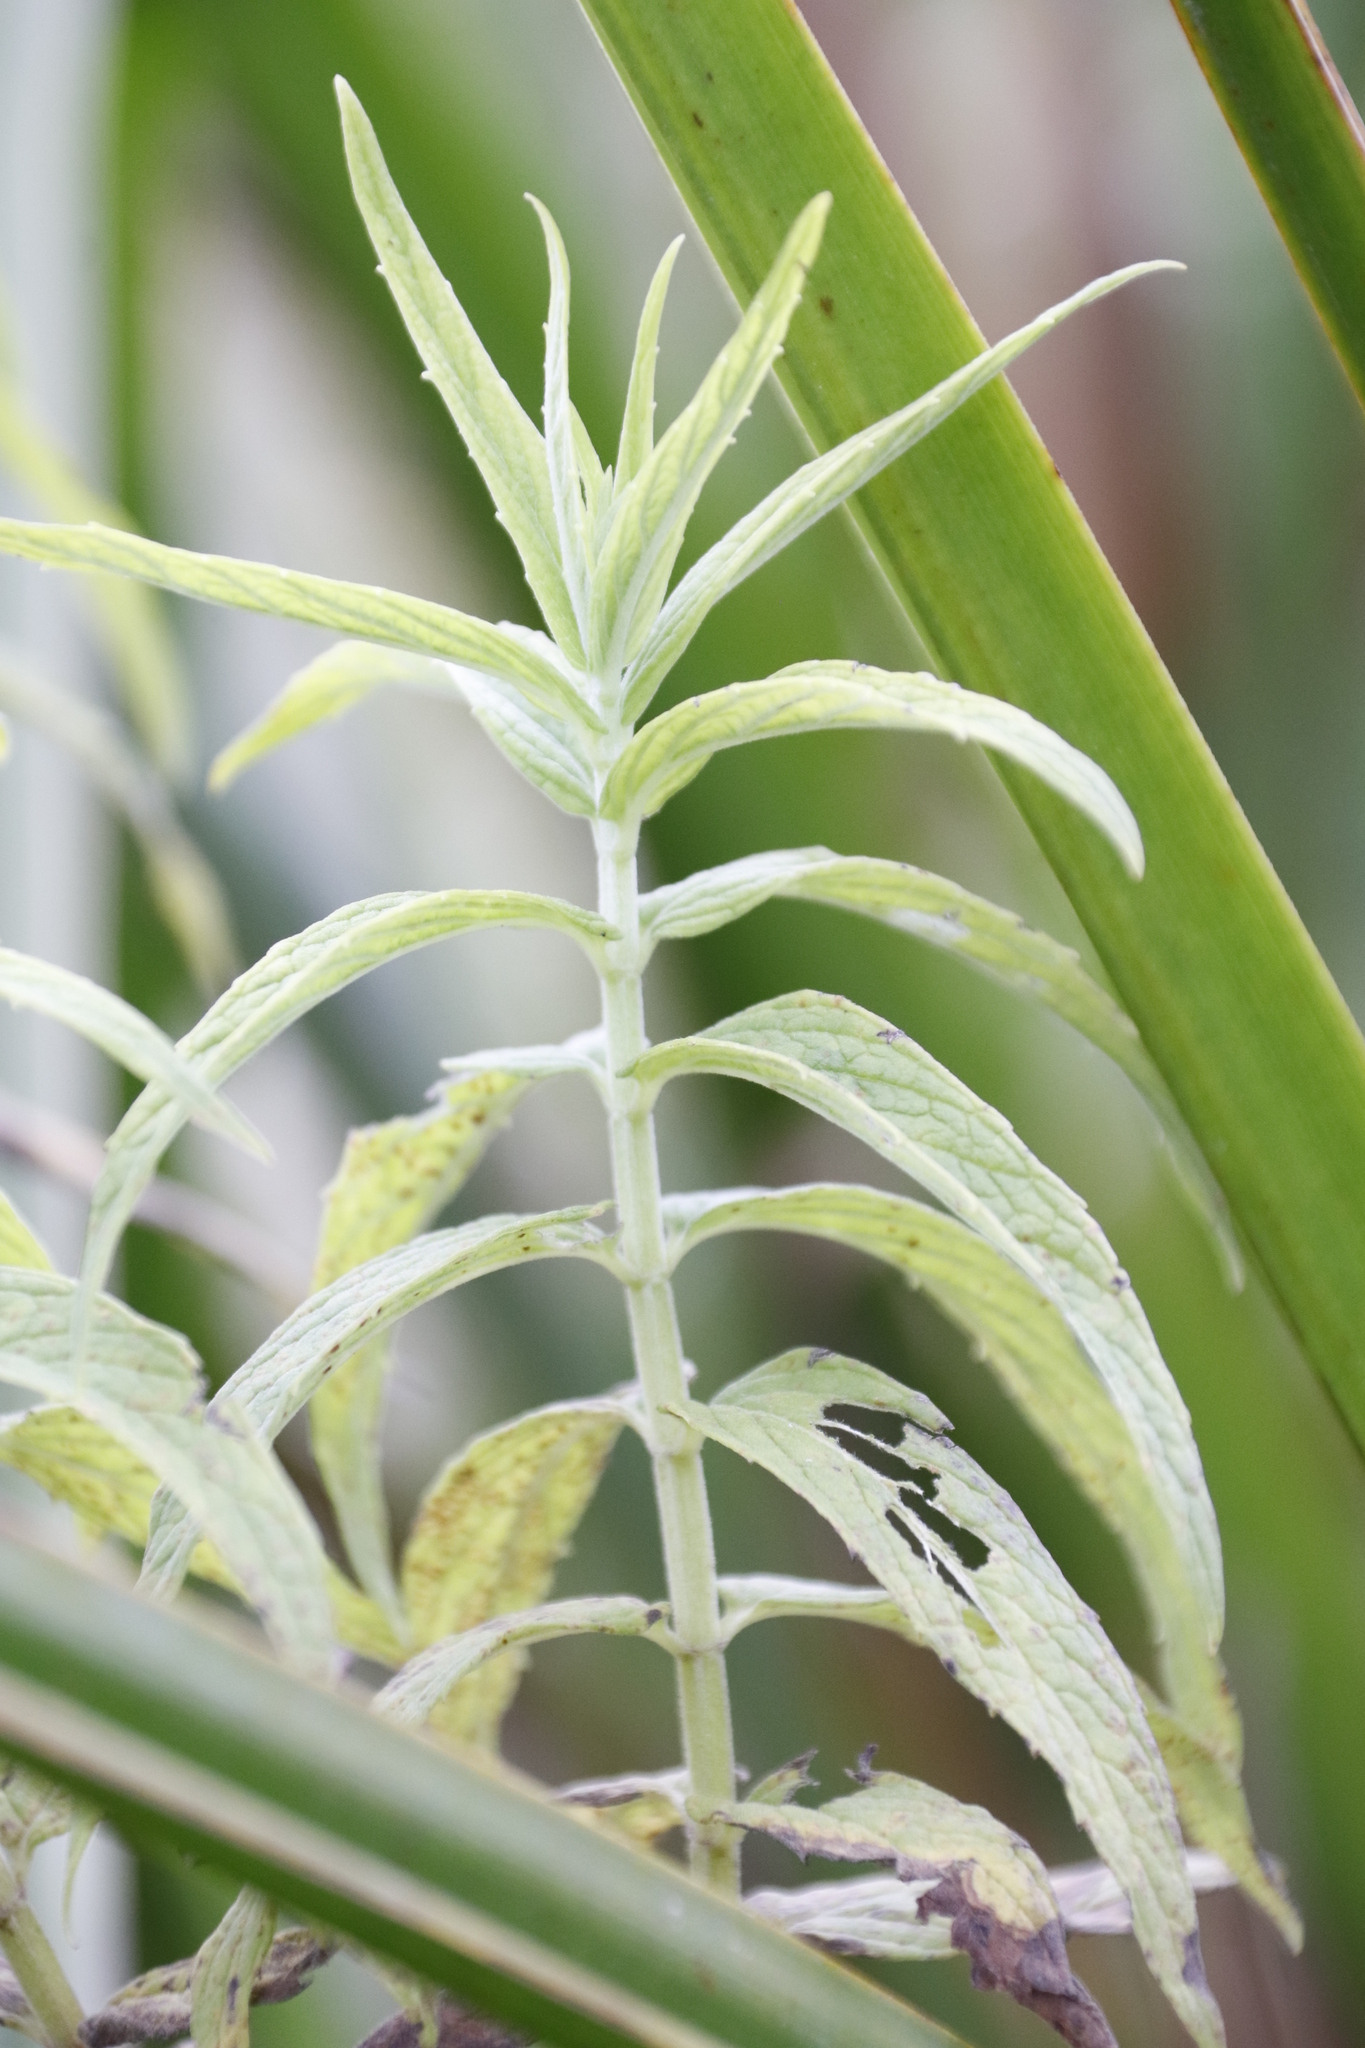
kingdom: Plantae
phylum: Tracheophyta
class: Magnoliopsida
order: Lamiales
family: Lamiaceae
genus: Mentha
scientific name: Mentha longifolia
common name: Horse mint
